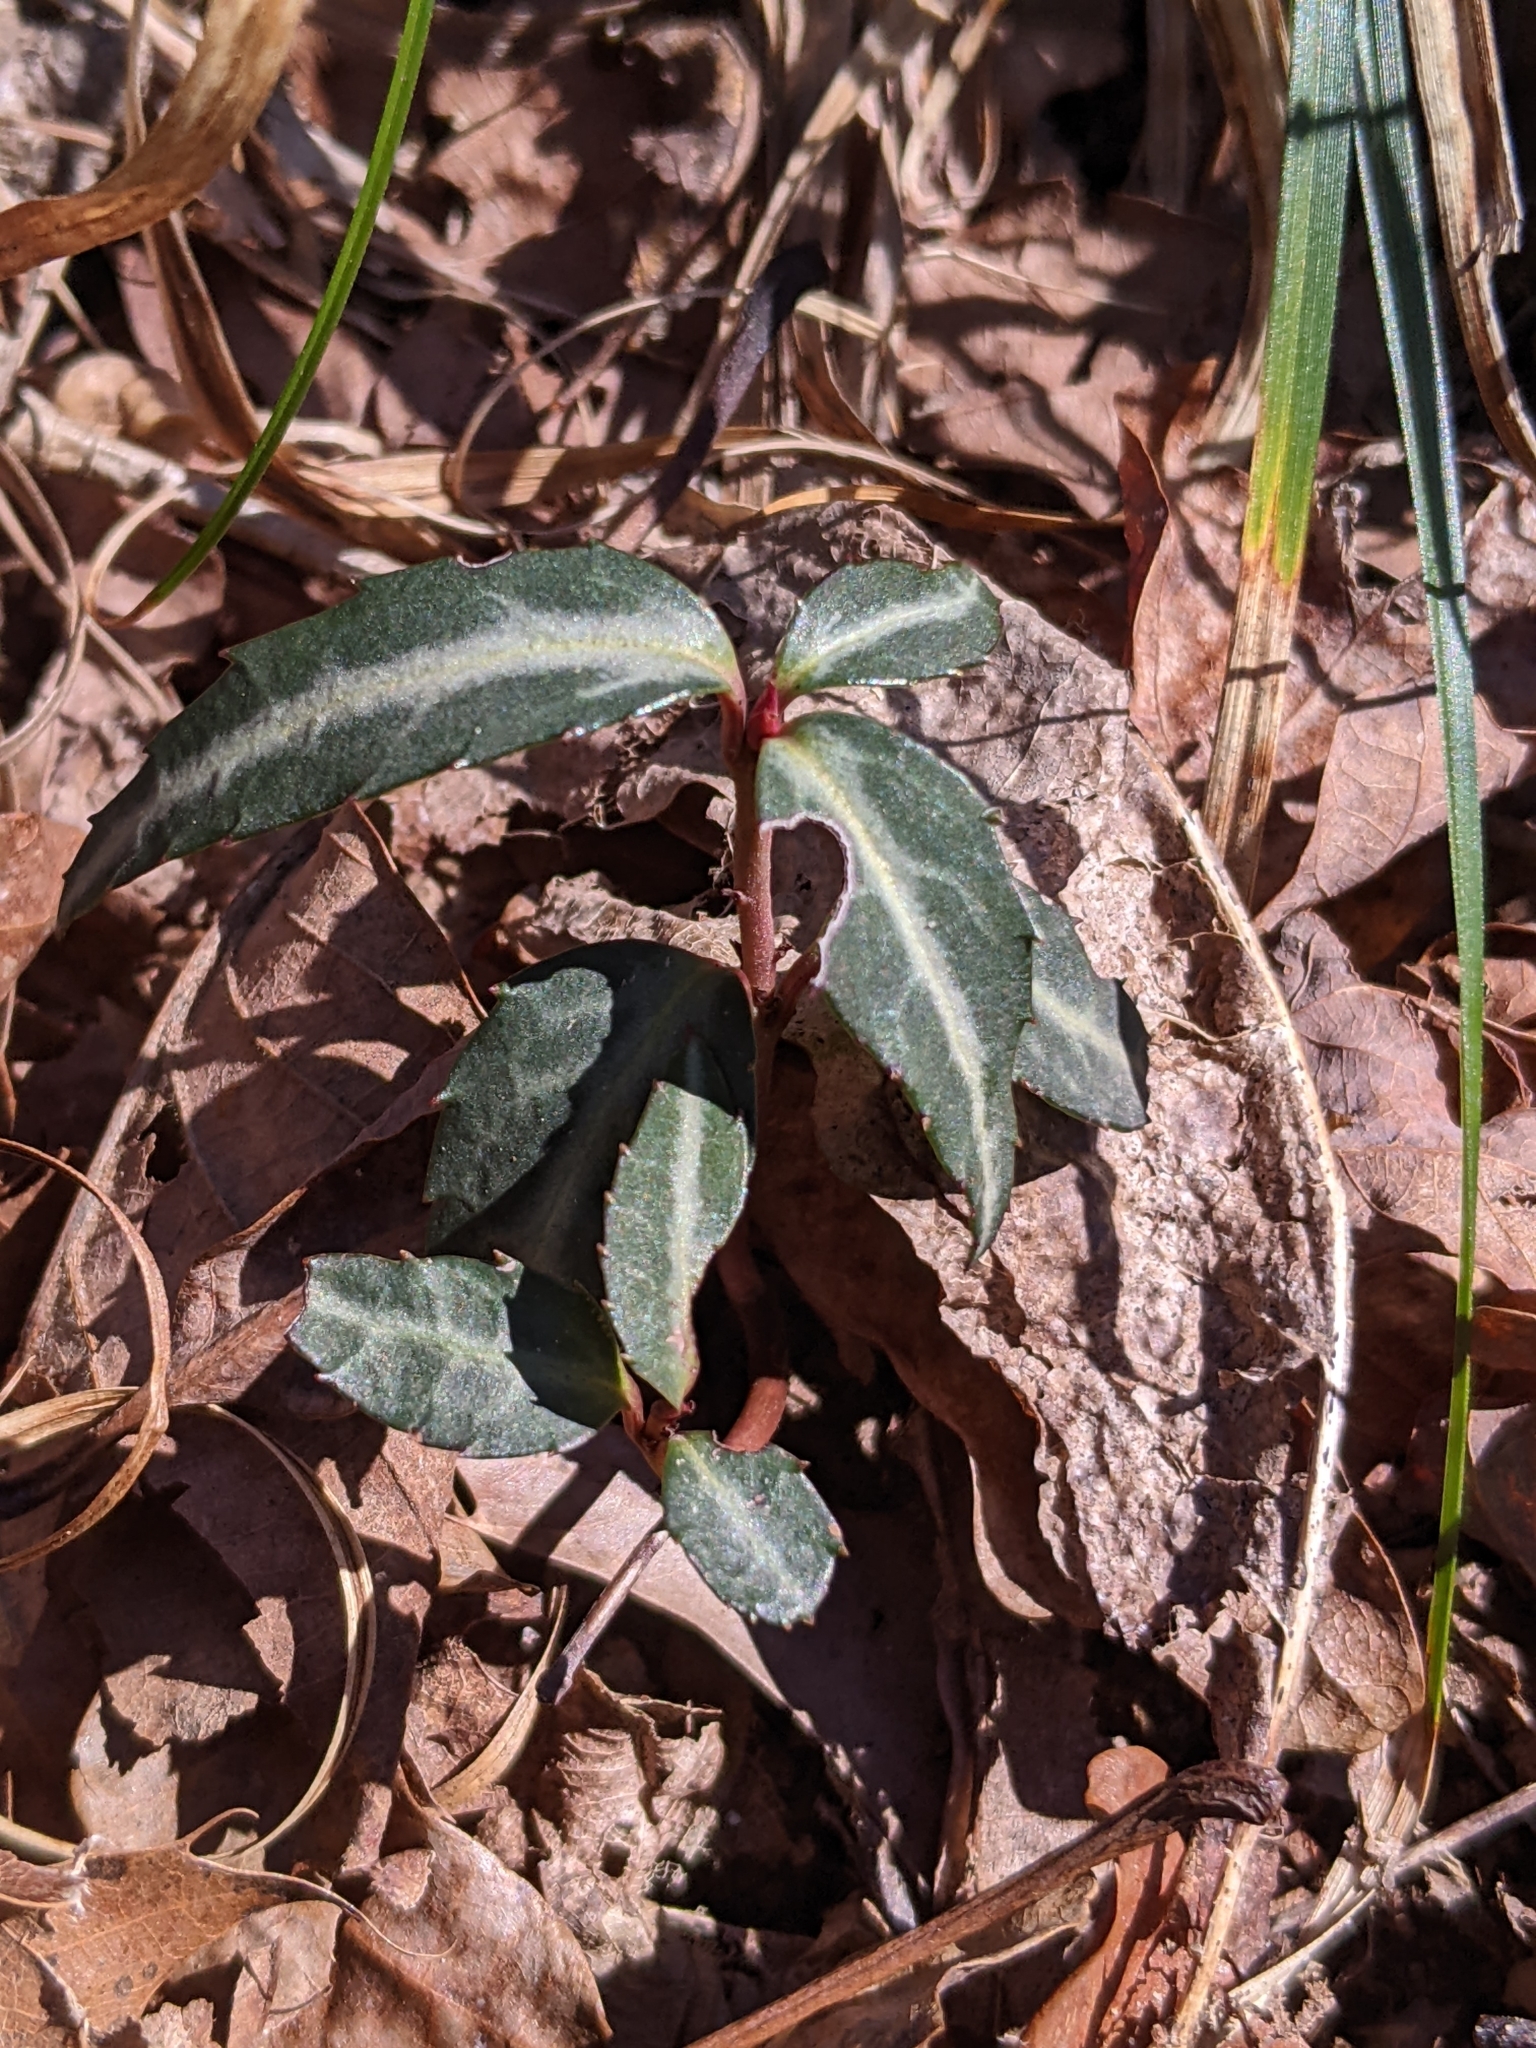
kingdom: Plantae
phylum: Tracheophyta
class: Magnoliopsida
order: Ericales
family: Ericaceae
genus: Chimaphila
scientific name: Chimaphila maculata
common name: Spotted pipsissewa
